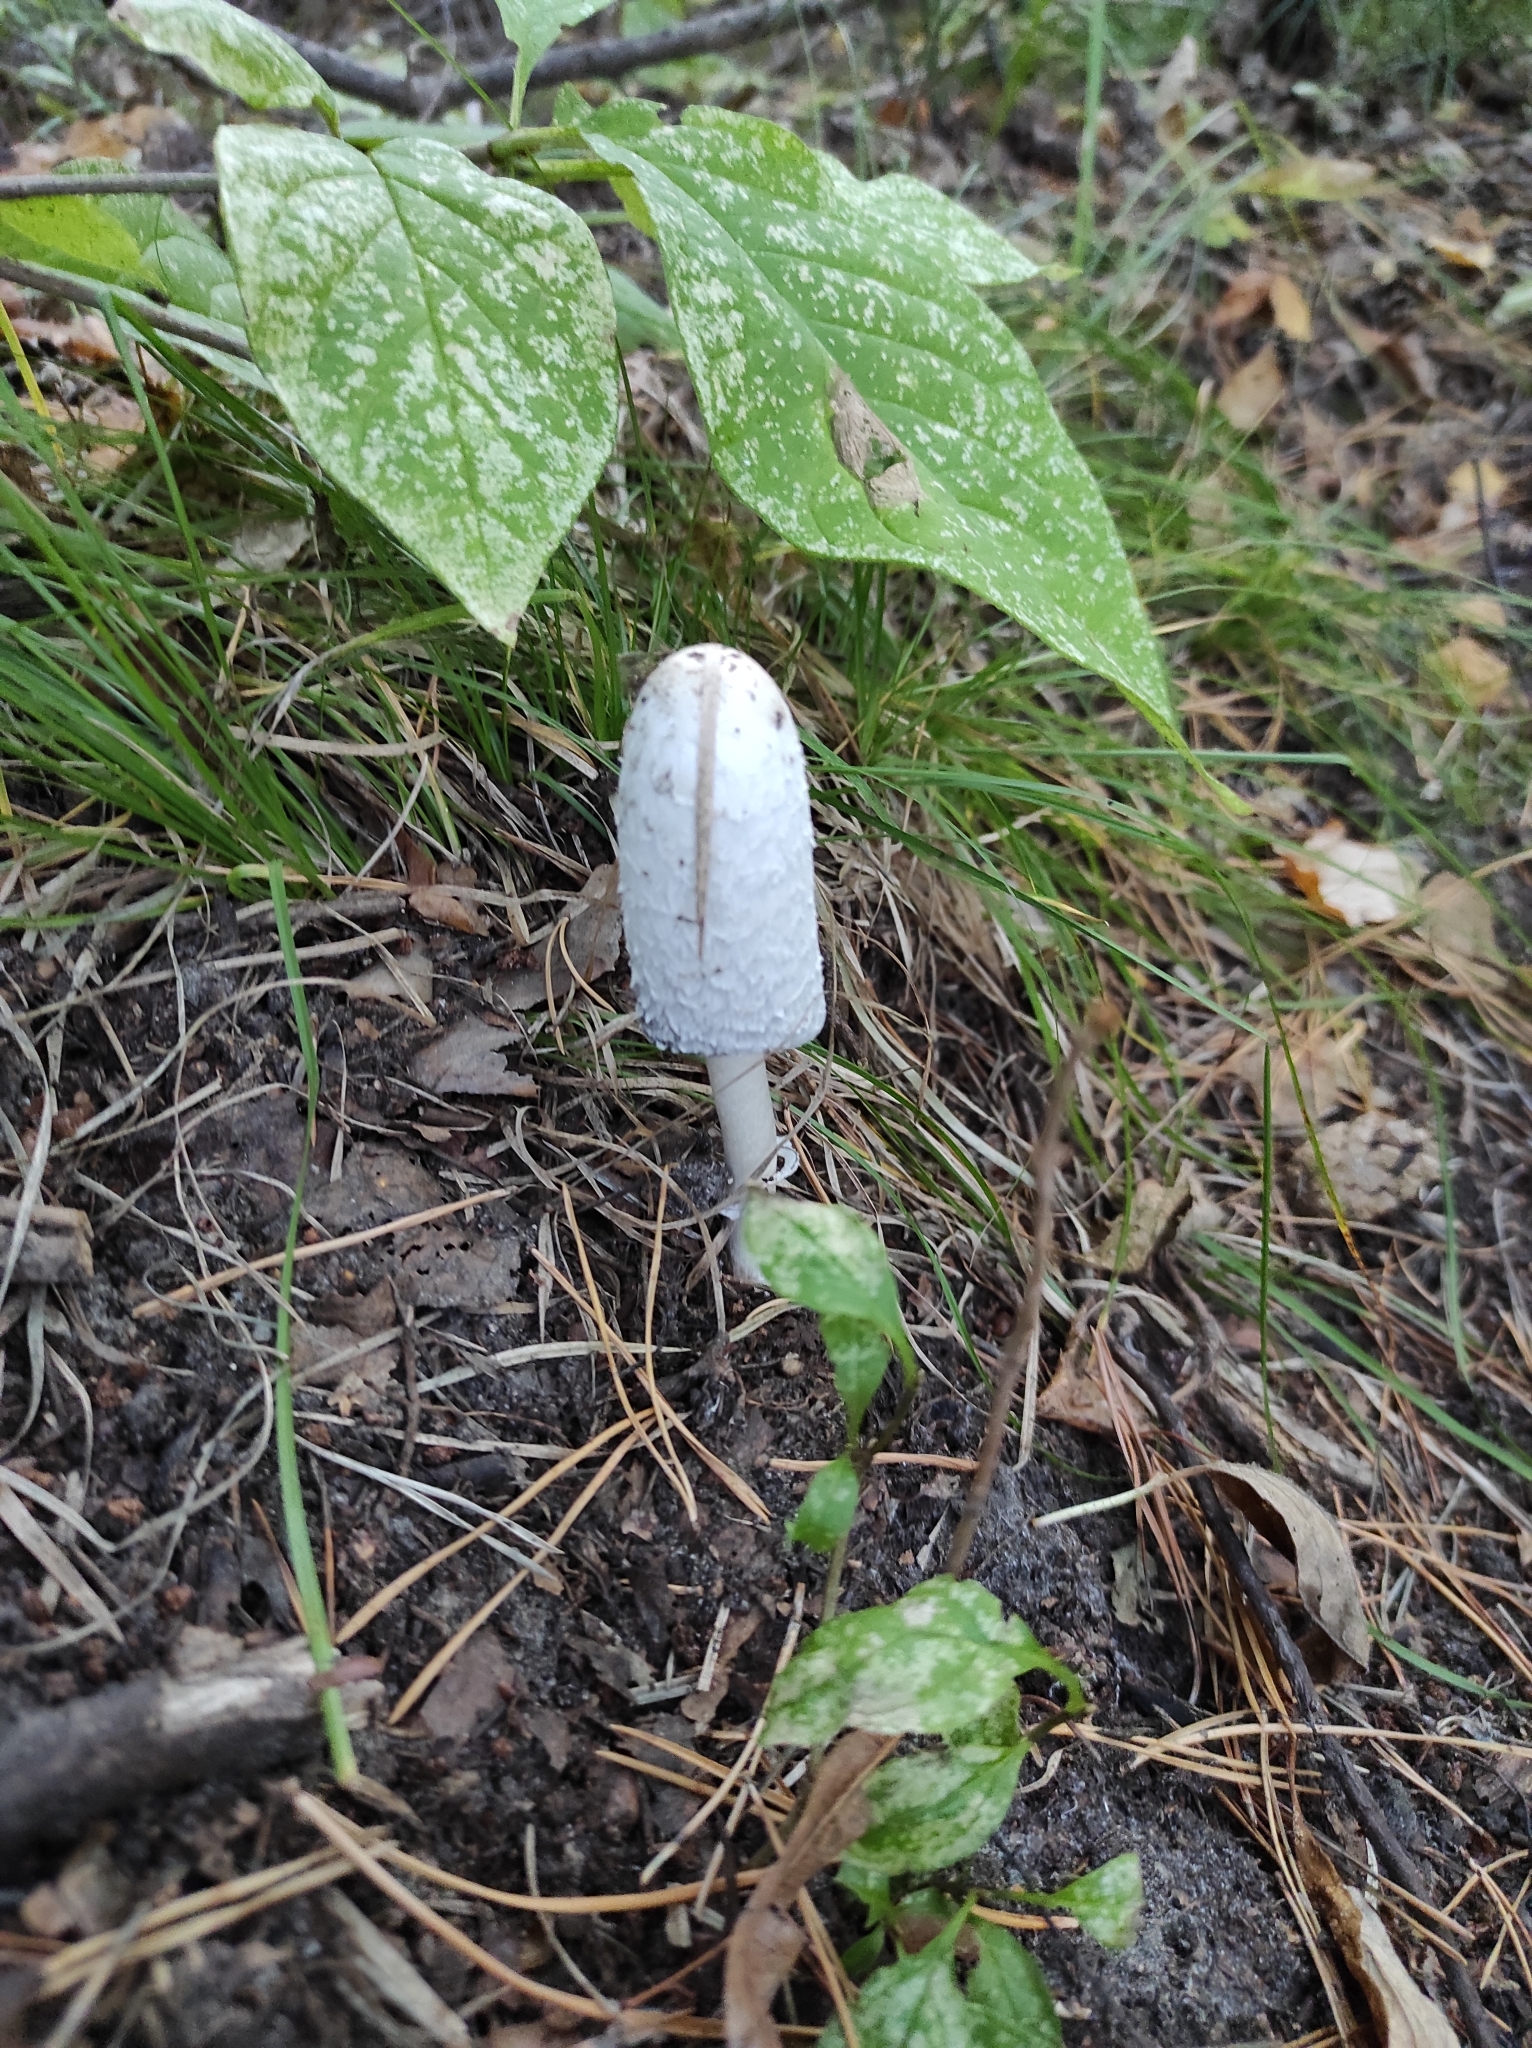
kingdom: Fungi
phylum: Basidiomycota
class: Agaricomycetes
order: Agaricales
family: Agaricaceae
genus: Coprinus
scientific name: Coprinus comatus
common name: Lawyer's wig
